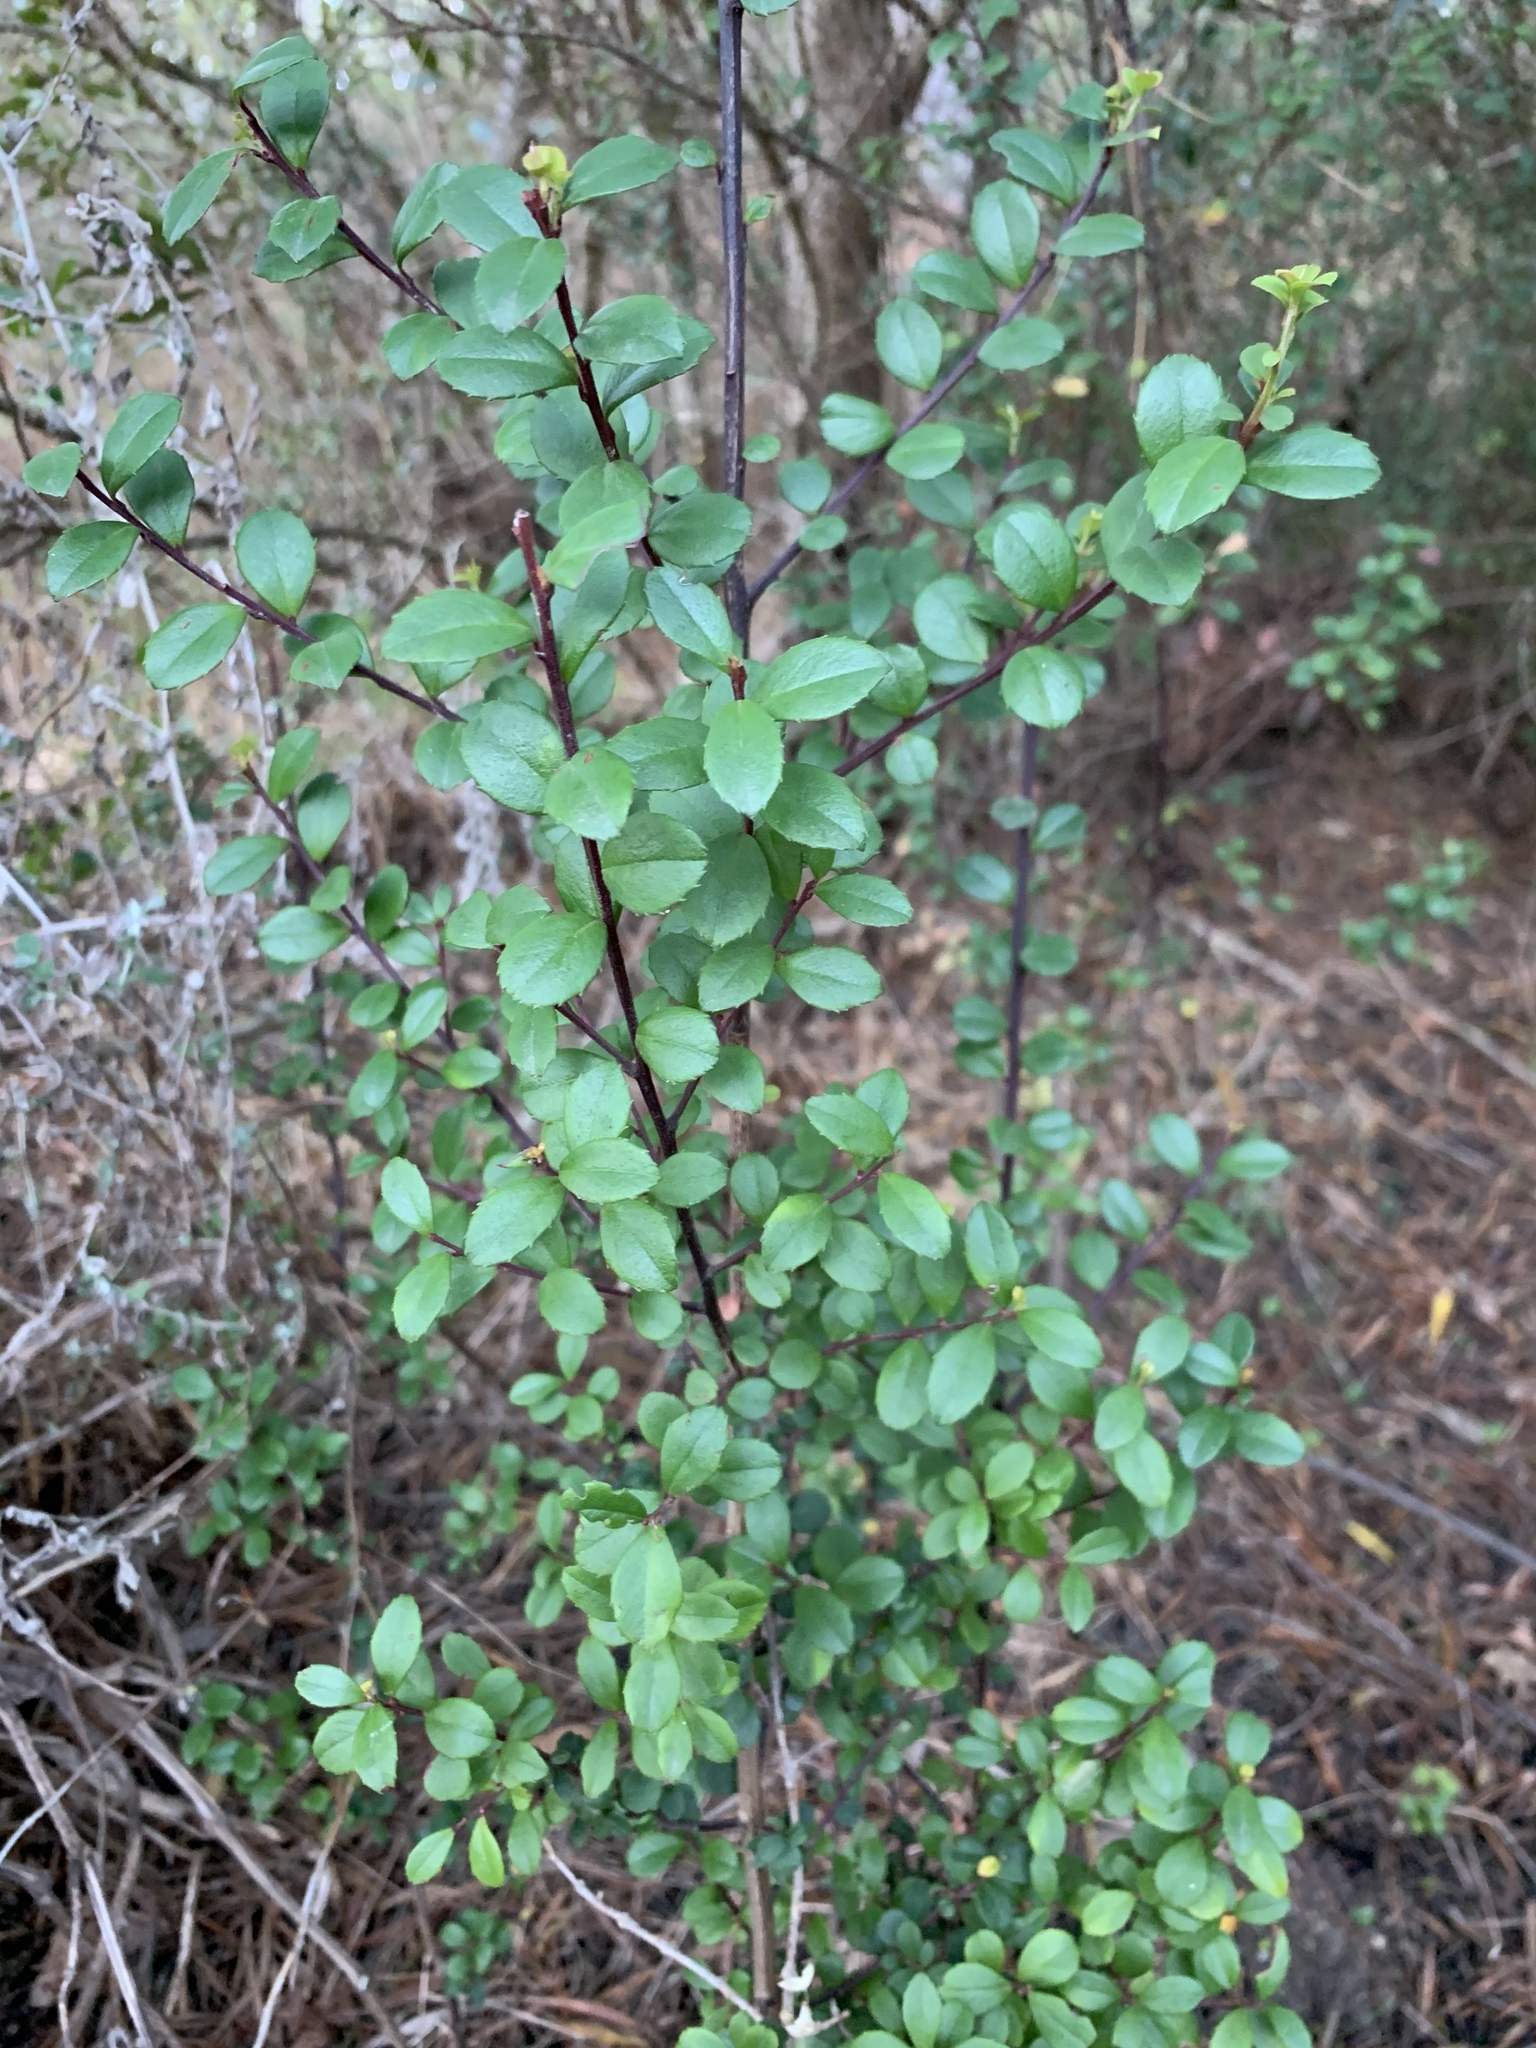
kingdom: Plantae
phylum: Tracheophyta
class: Magnoliopsida
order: Ericales
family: Primulaceae
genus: Myrsine
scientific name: Myrsine africana
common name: African-boxwood
